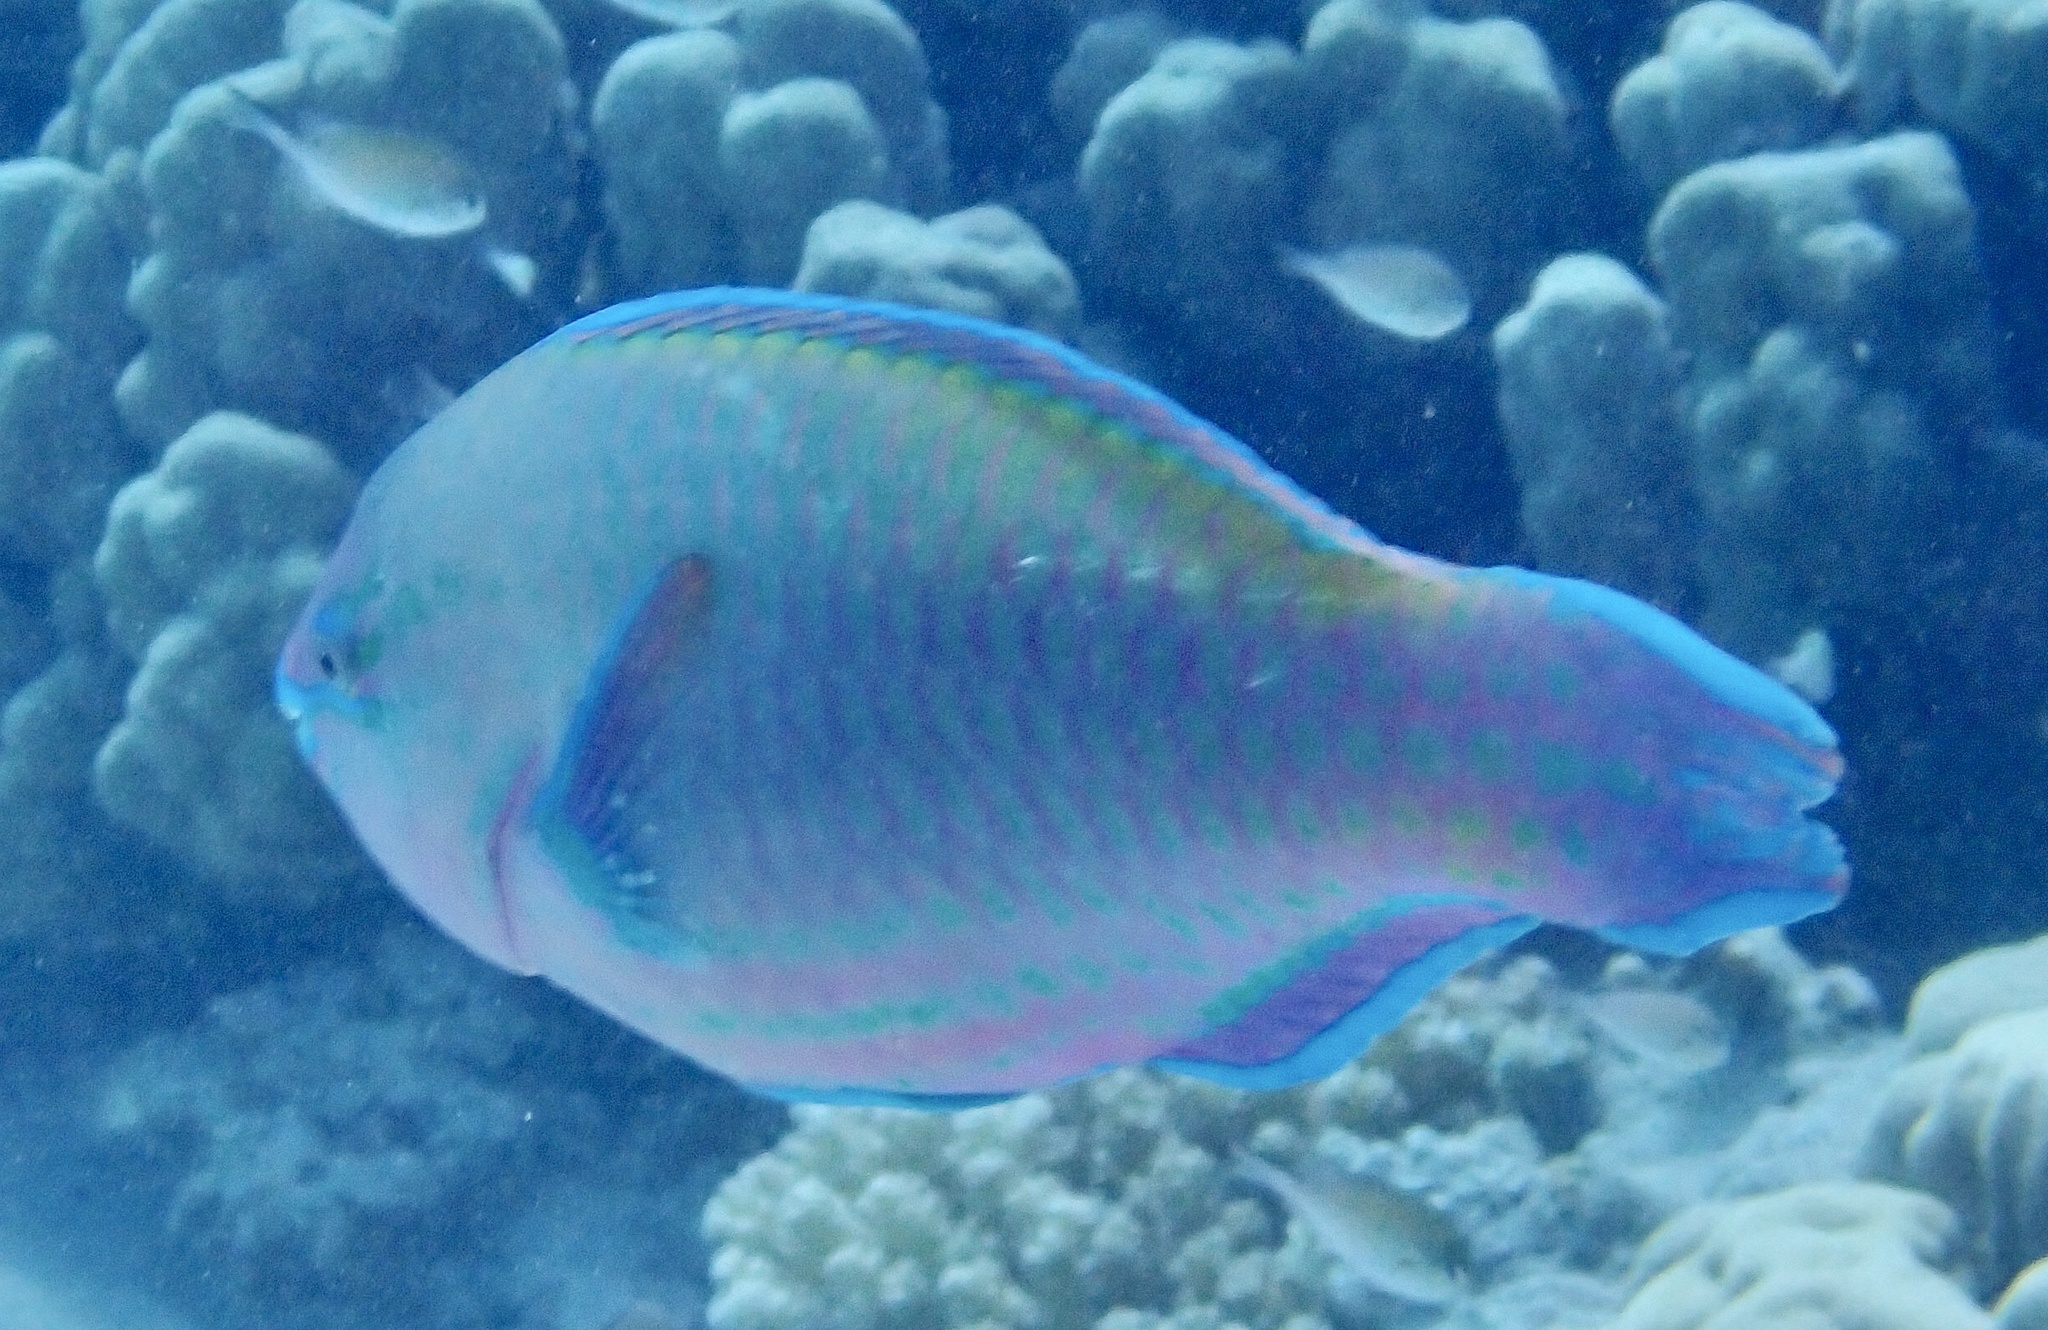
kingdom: Animalia
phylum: Chordata
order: Perciformes
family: Scaridae
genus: Scarus
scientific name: Scarus psittacus
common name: Palenose parrotfish
